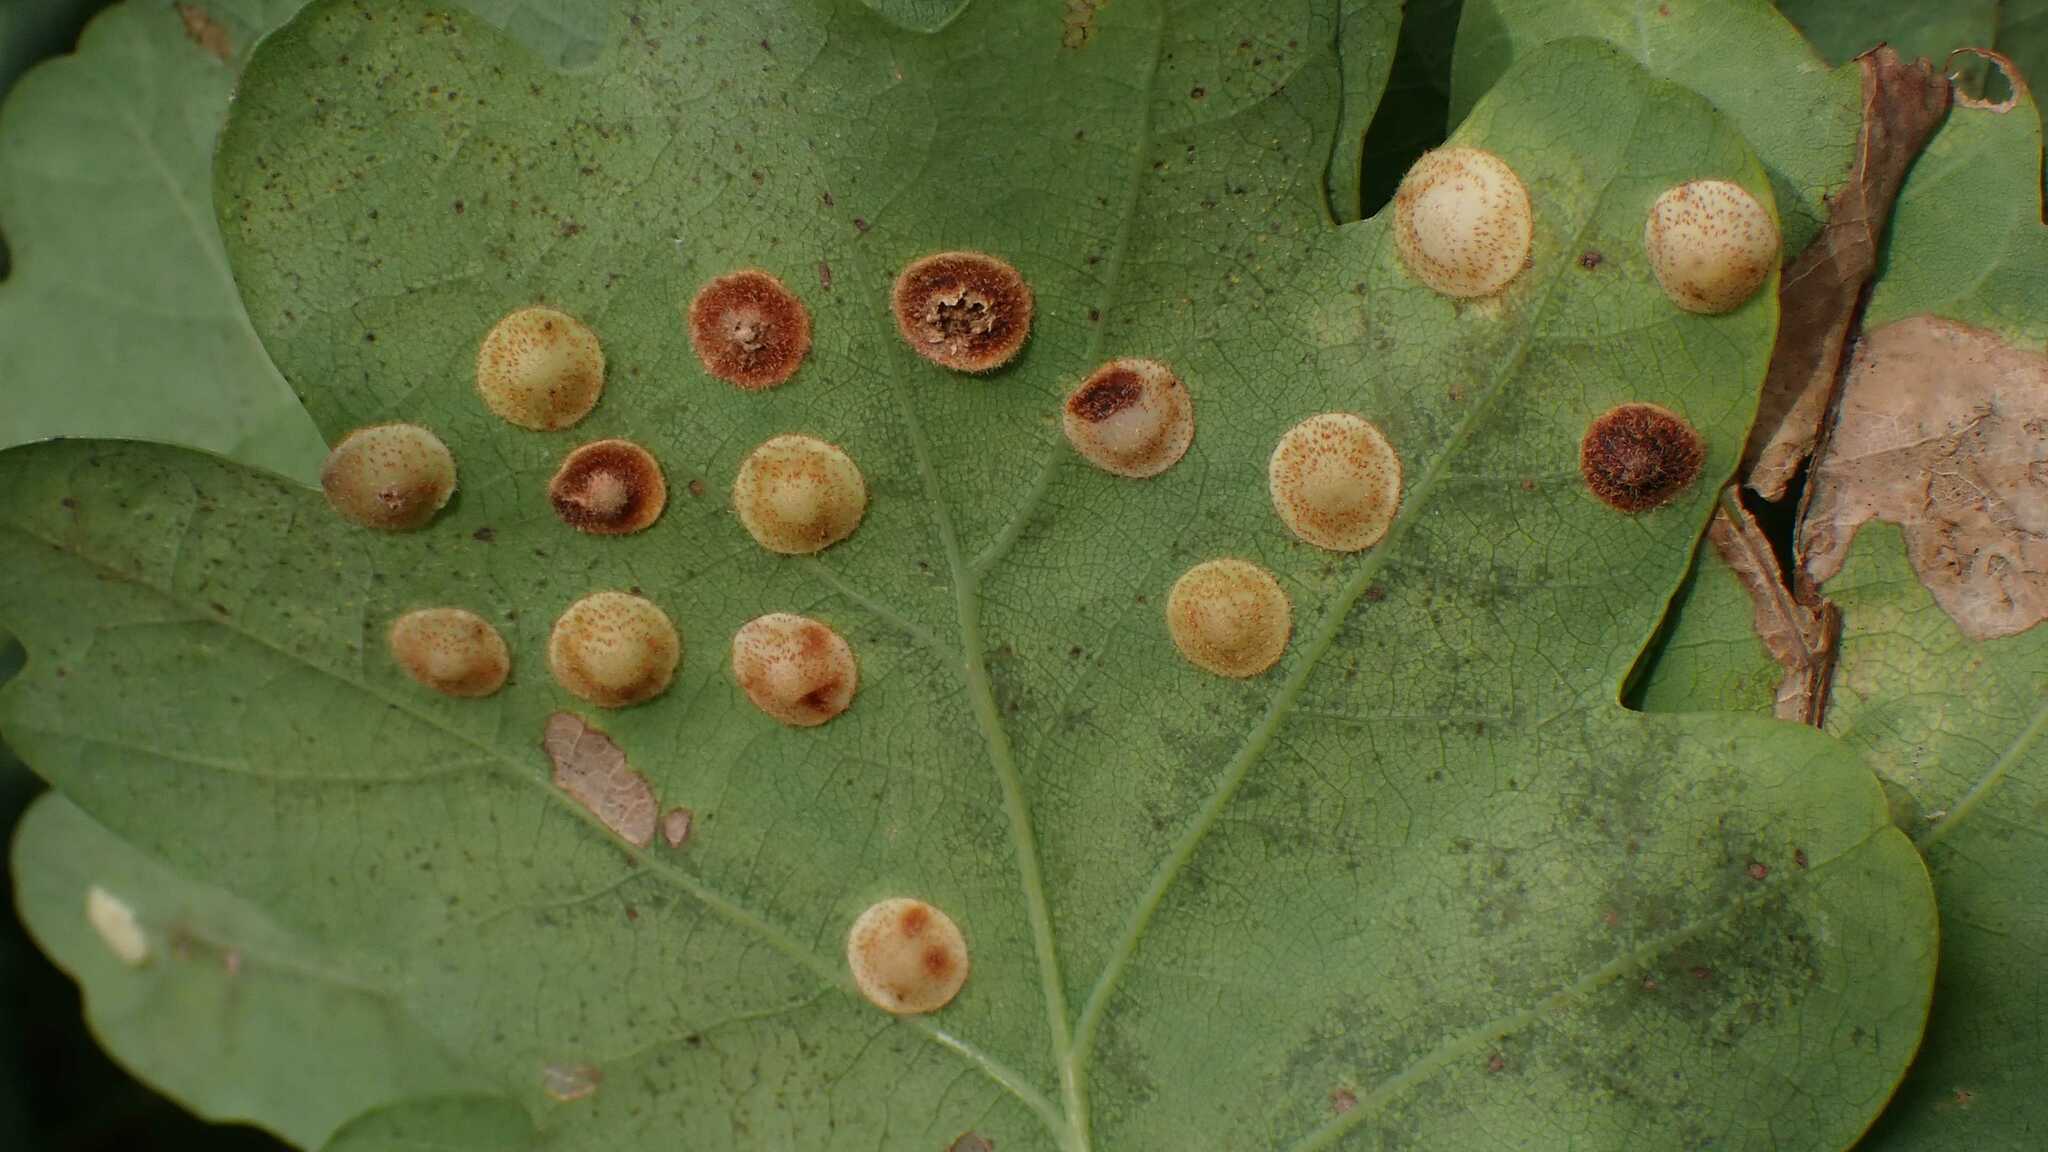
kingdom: Animalia
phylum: Arthropoda
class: Insecta
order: Hymenoptera
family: Cynipidae
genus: Neuroterus
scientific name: Neuroterus quercusbaccarum
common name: Common spangle gall
